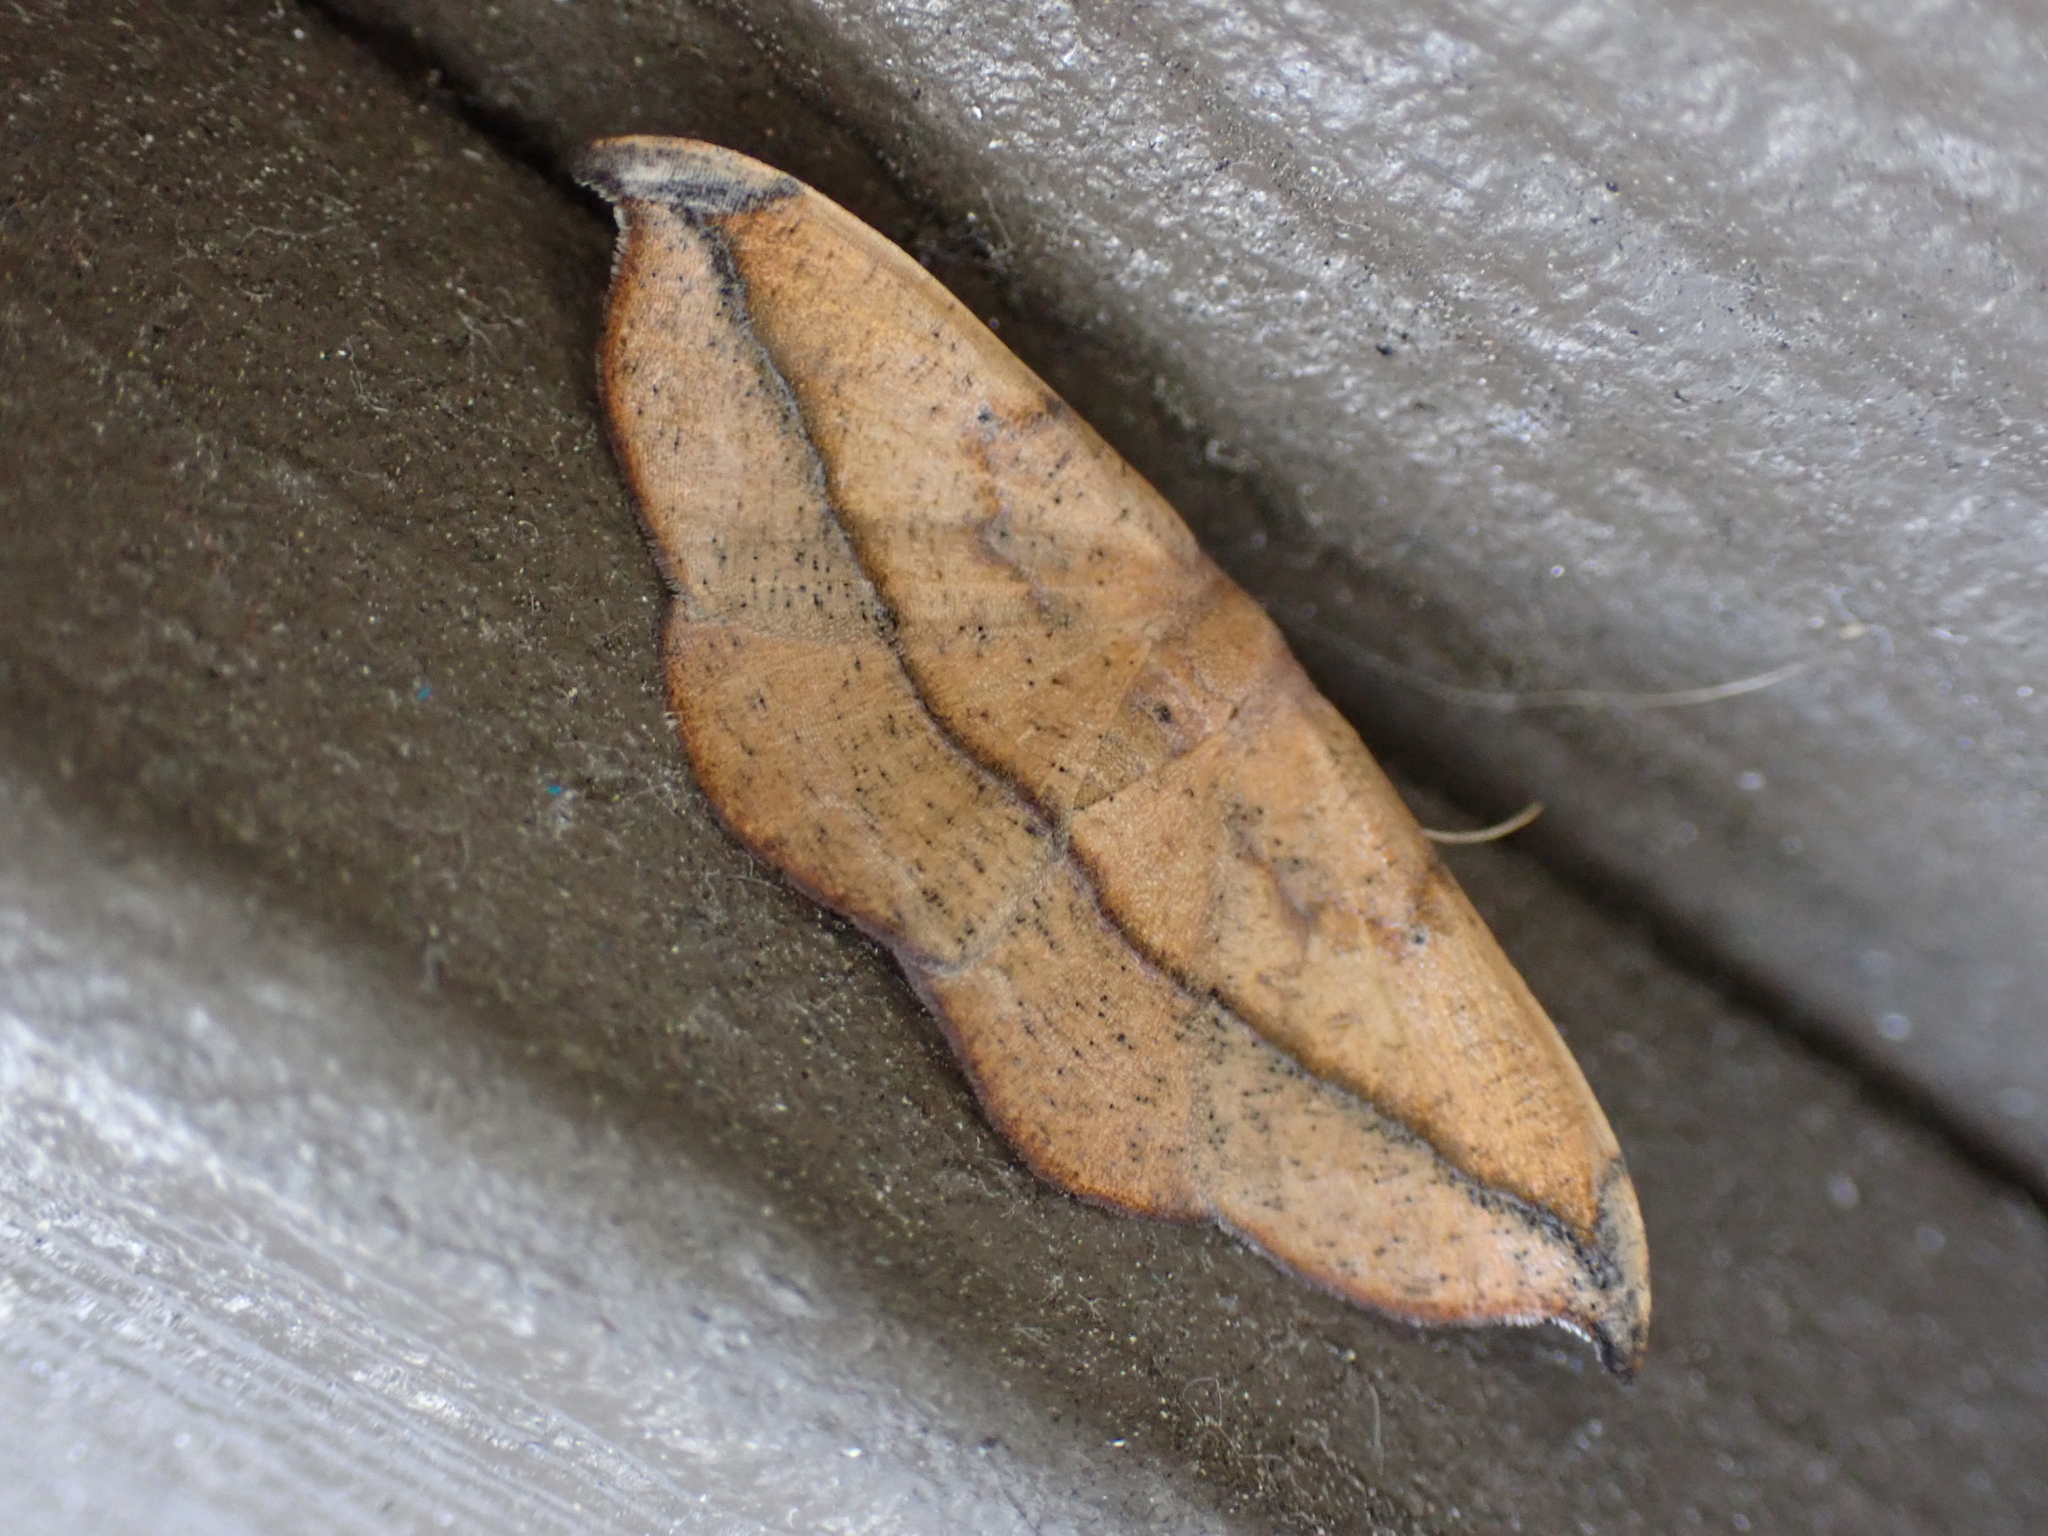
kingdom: Animalia
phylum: Arthropoda
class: Insecta
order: Lepidoptera
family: Geometridae
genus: Patalene
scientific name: Patalene olyzonaria
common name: Juniper geometer moth
